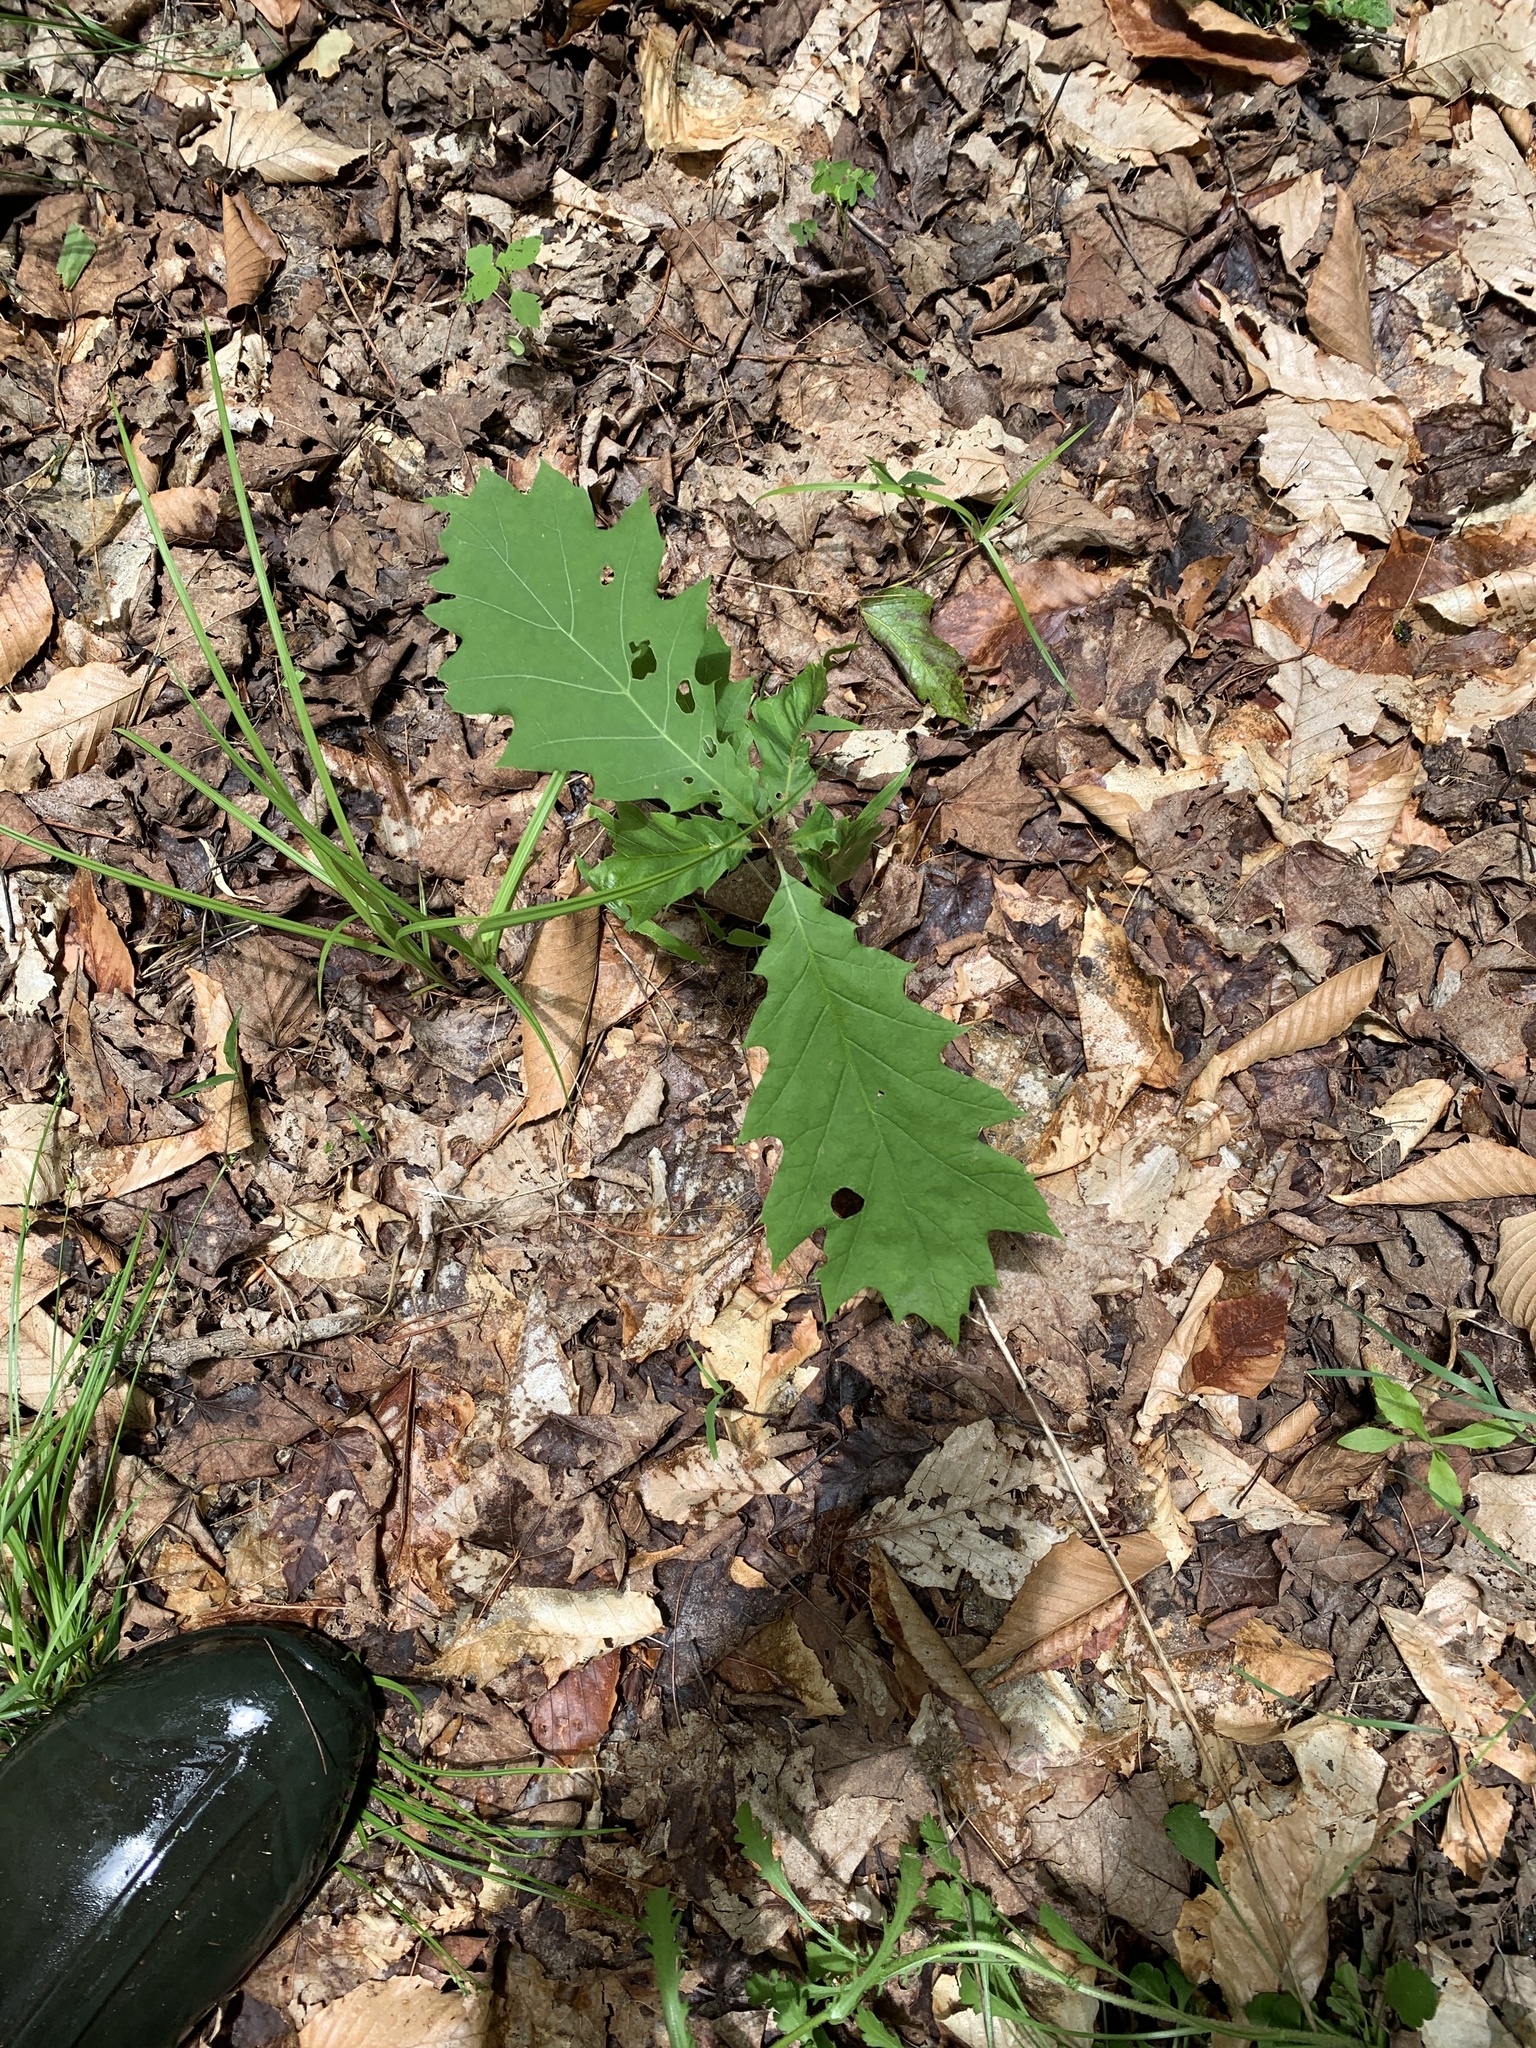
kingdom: Plantae
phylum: Tracheophyta
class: Magnoliopsida
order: Fagales
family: Fagaceae
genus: Quercus
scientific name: Quercus rubra
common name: Red oak
